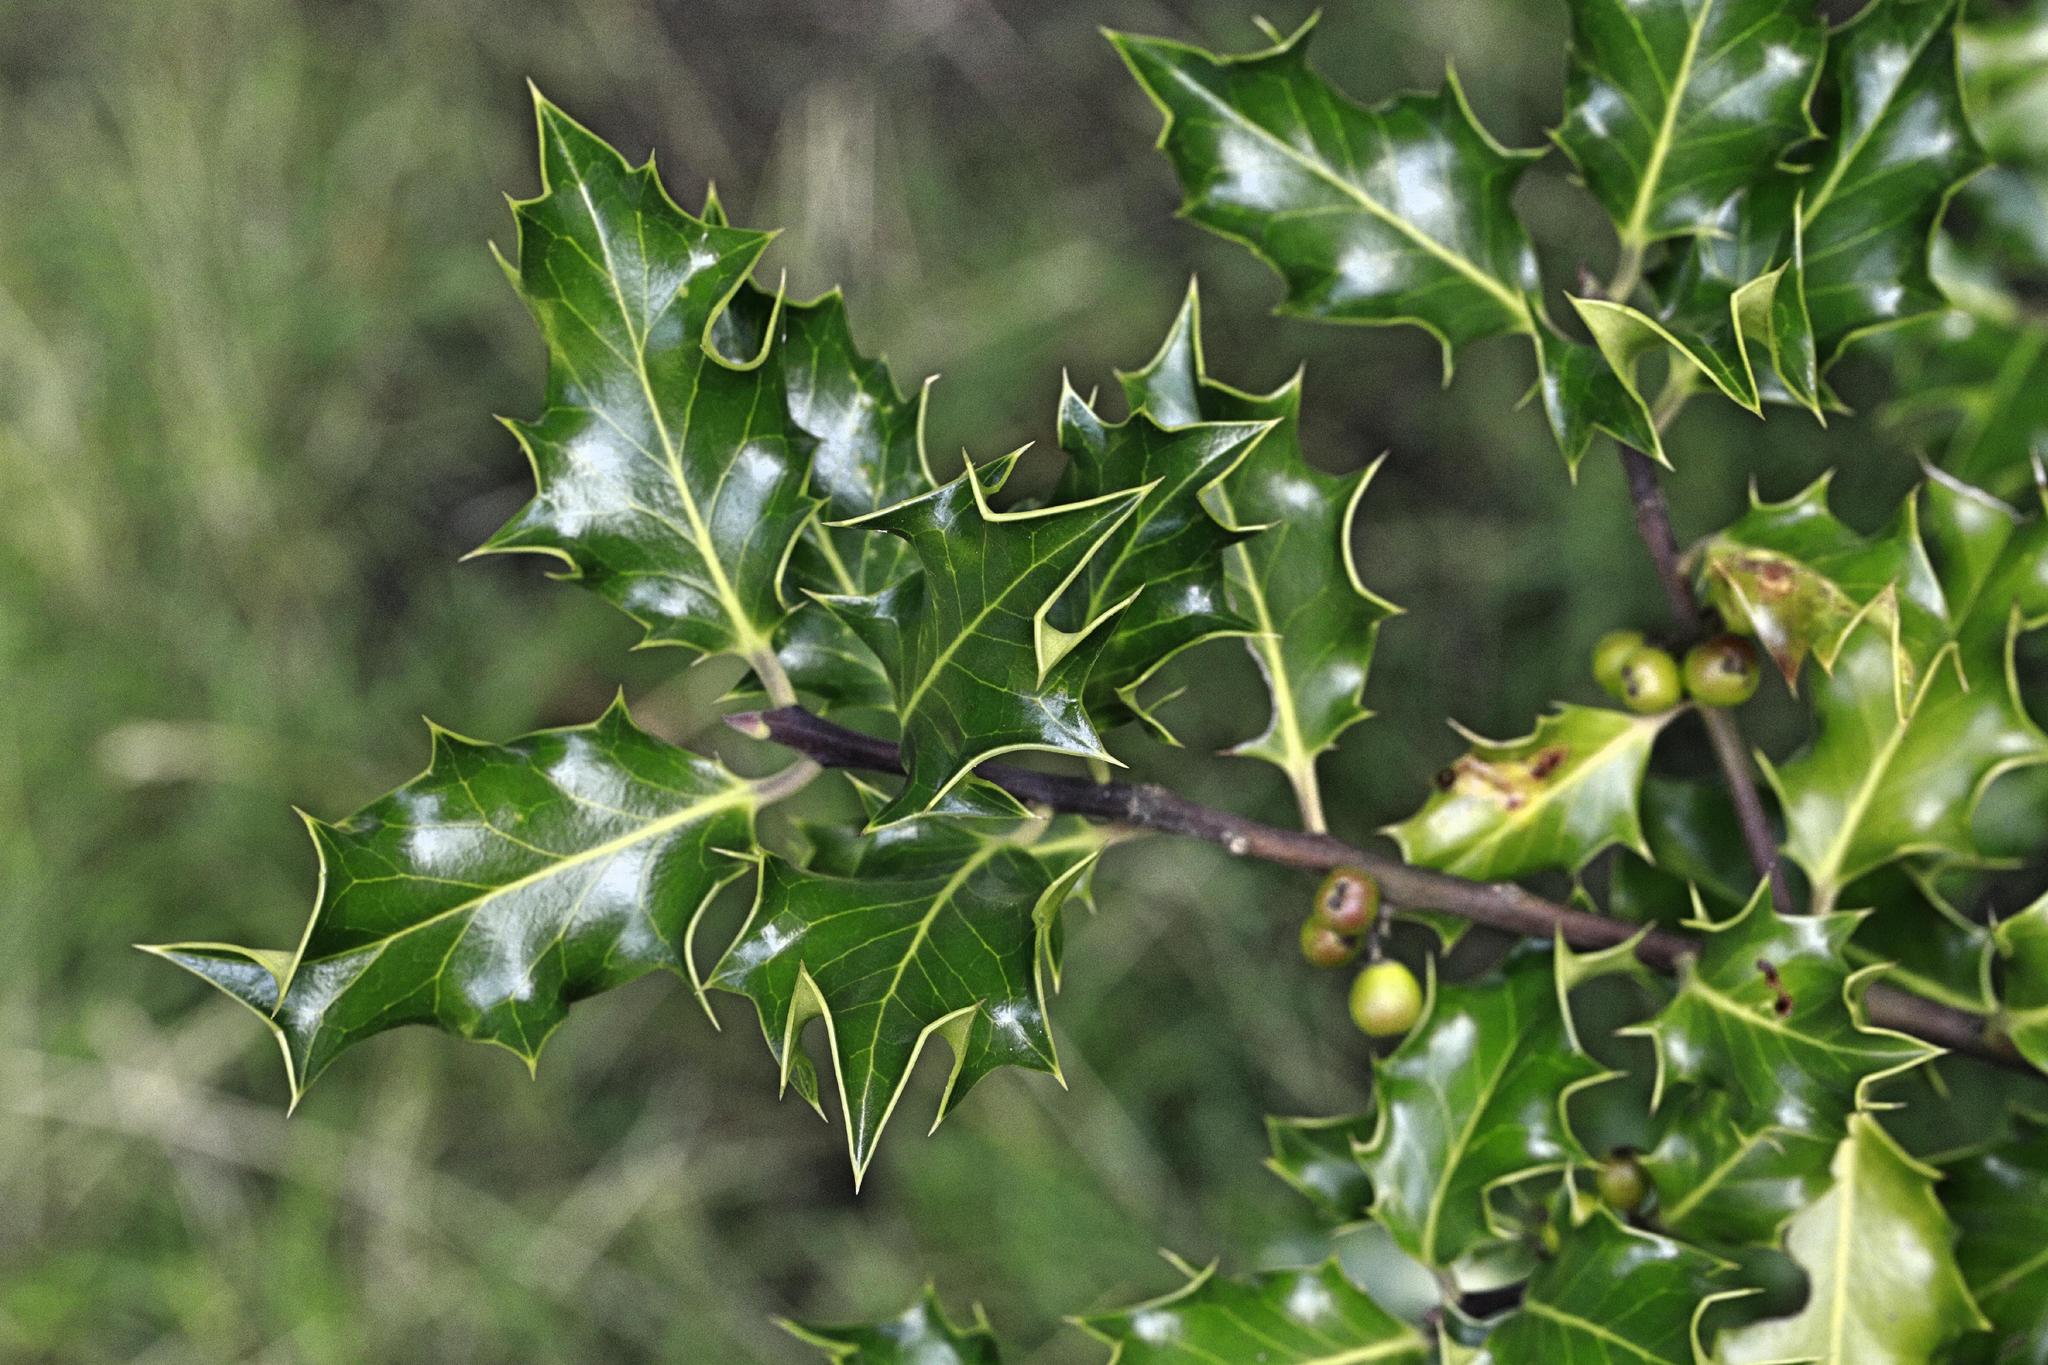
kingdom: Plantae
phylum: Tracheophyta
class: Magnoliopsida
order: Aquifoliales
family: Aquifoliaceae
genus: Ilex
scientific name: Ilex aquifolium
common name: English holly
